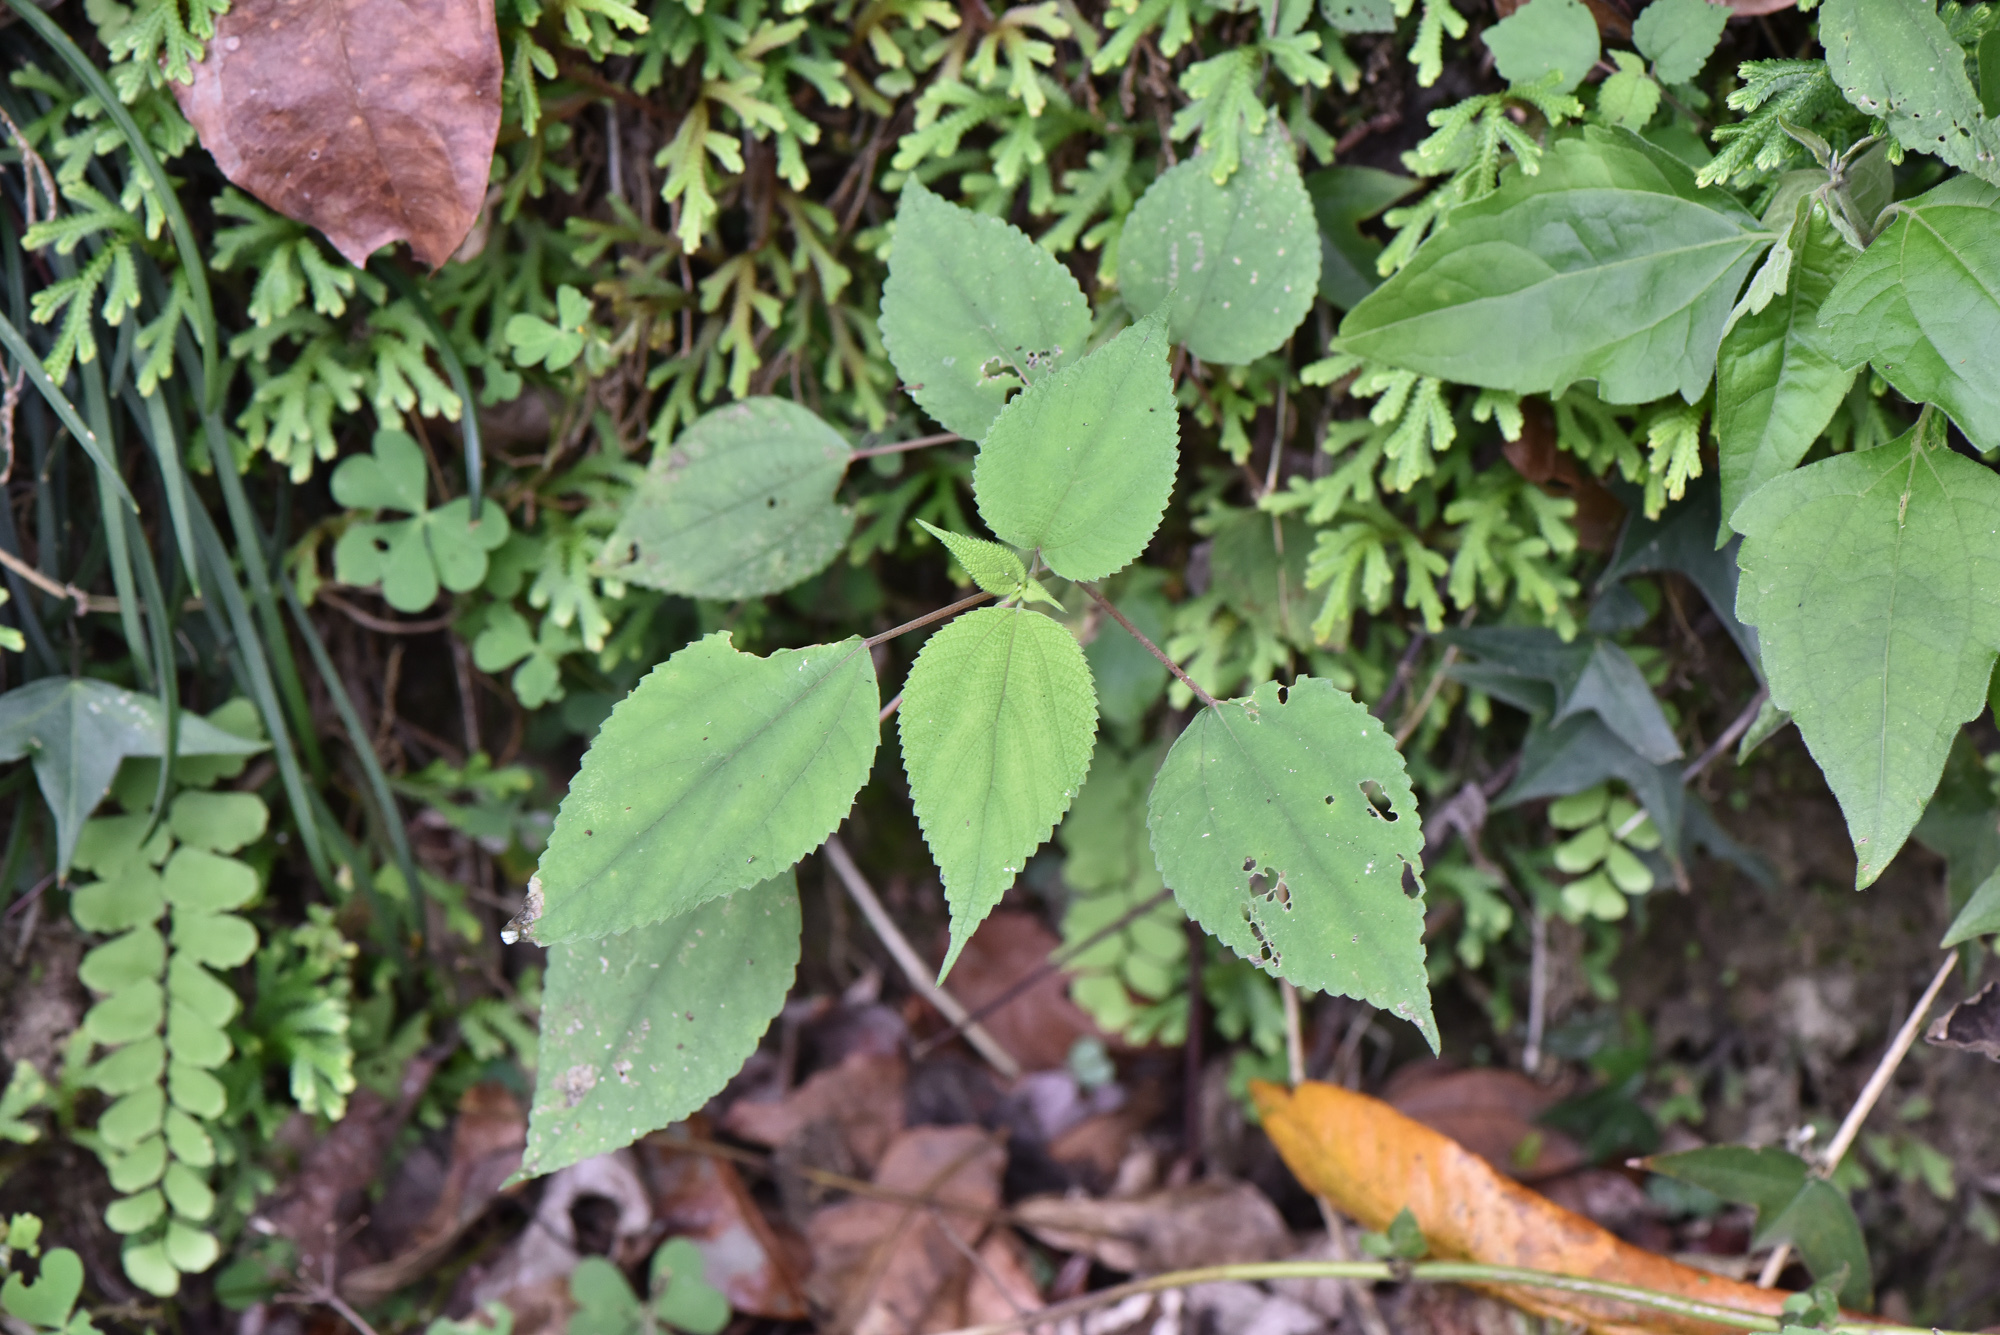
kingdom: Plantae
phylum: Tracheophyta
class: Magnoliopsida
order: Rosales
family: Urticaceae
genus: Boehmeria
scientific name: Boehmeria nivea
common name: Ramie chinese grass
